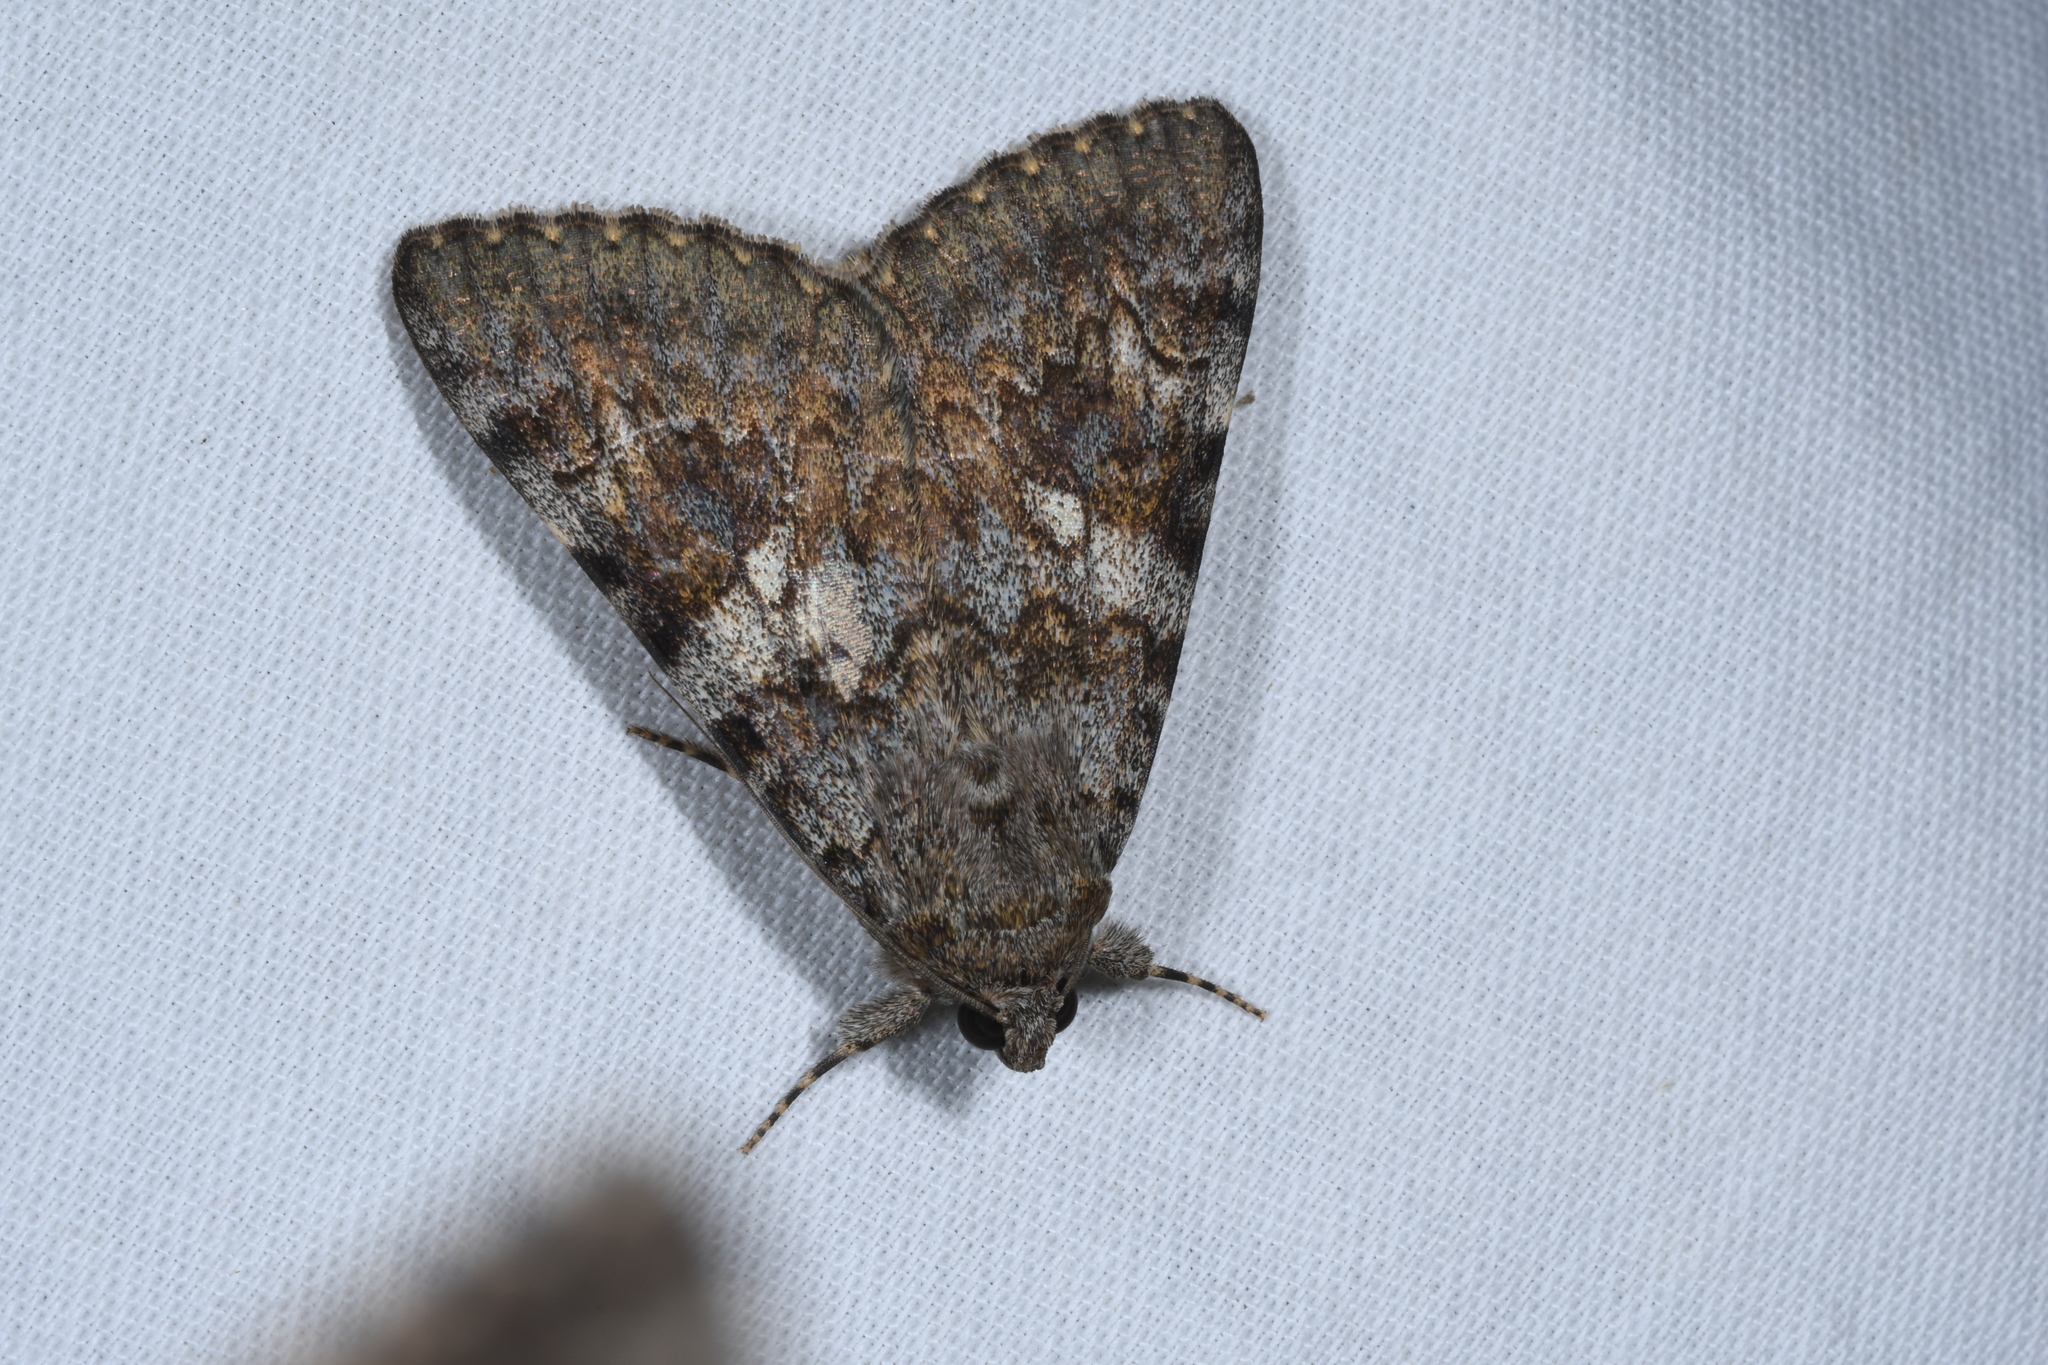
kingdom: Animalia
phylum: Arthropoda
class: Insecta
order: Lepidoptera
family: Erebidae
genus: Catocala
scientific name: Catocala nymphaea
